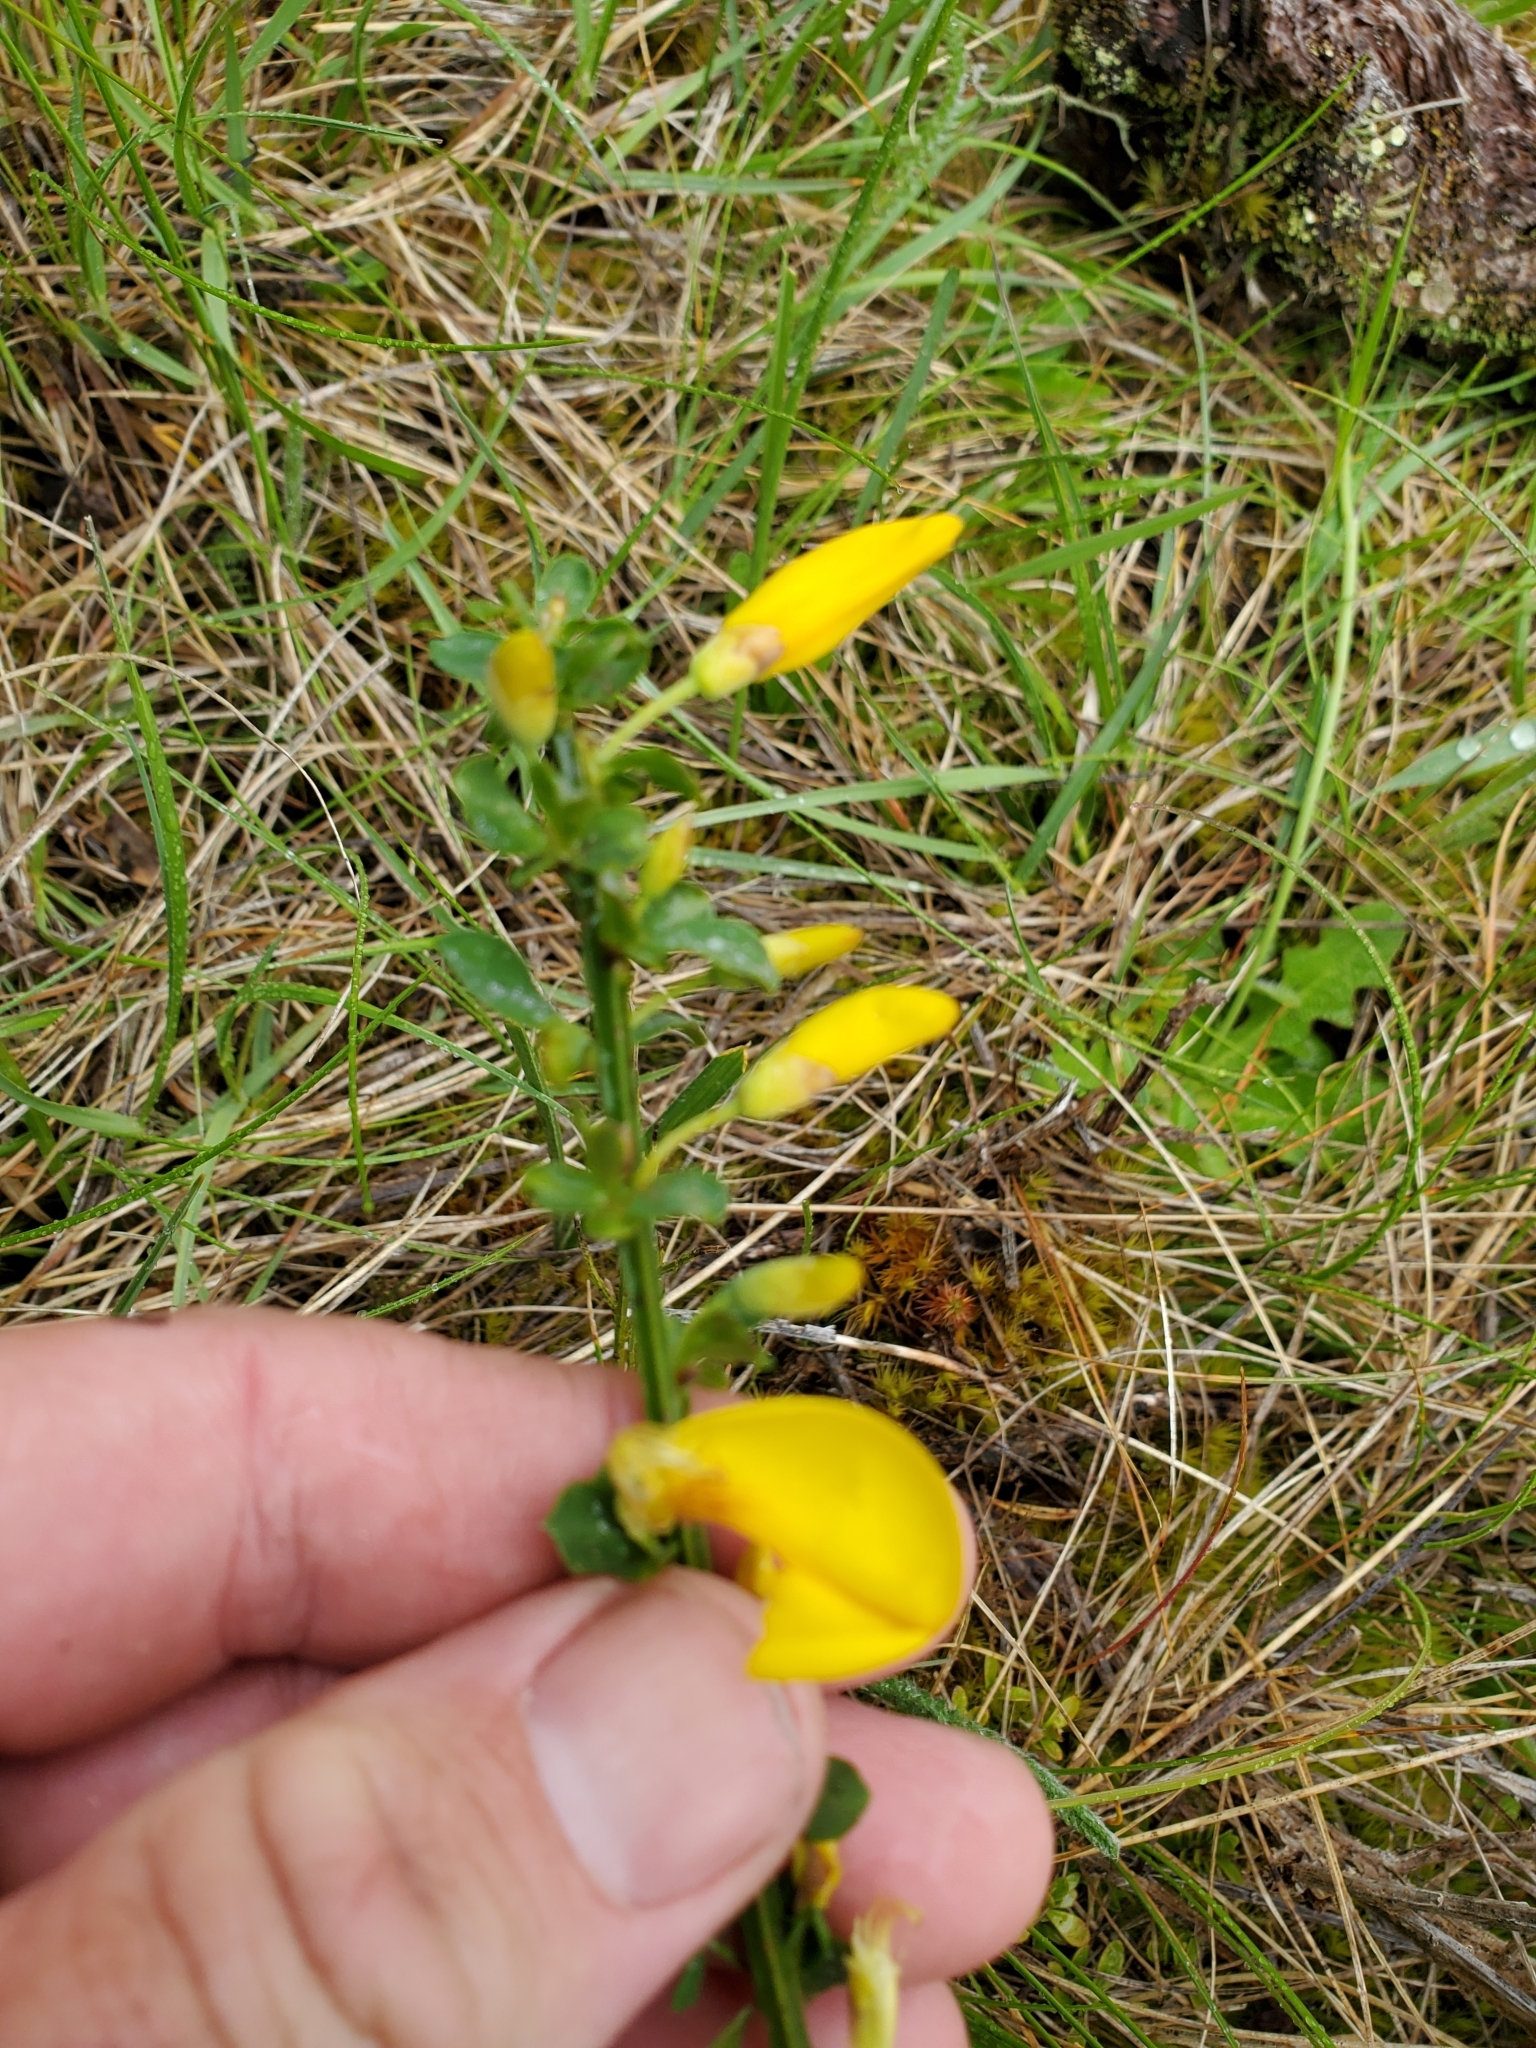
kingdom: Plantae
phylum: Tracheophyta
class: Magnoliopsida
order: Fabales
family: Fabaceae
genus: Cytisus
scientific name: Cytisus scoparius
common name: Scotch broom
